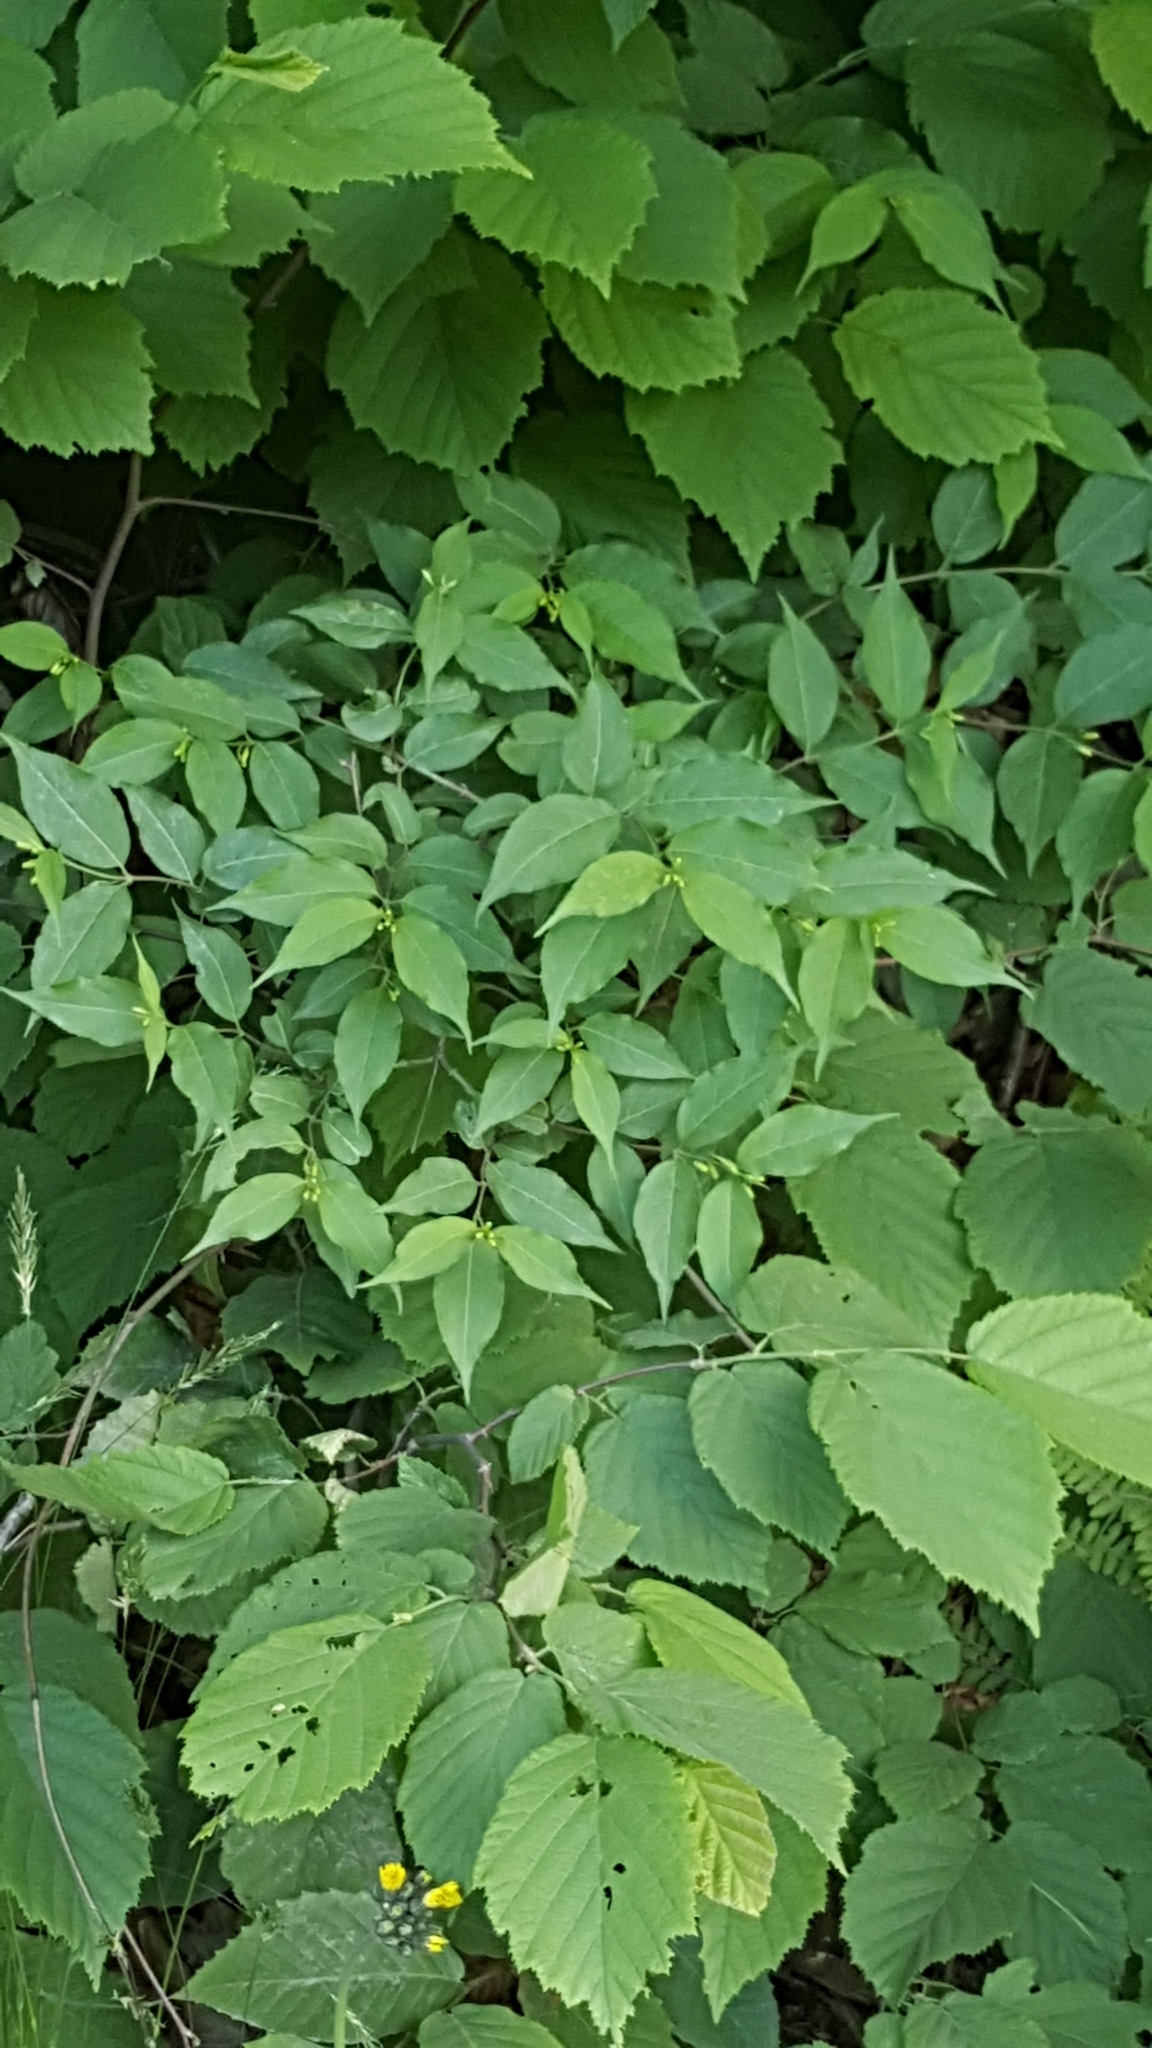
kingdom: Plantae
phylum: Tracheophyta
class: Magnoliopsida
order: Dipsacales
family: Caprifoliaceae
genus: Diervilla
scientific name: Diervilla lonicera
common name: Bush-honeysuckle
